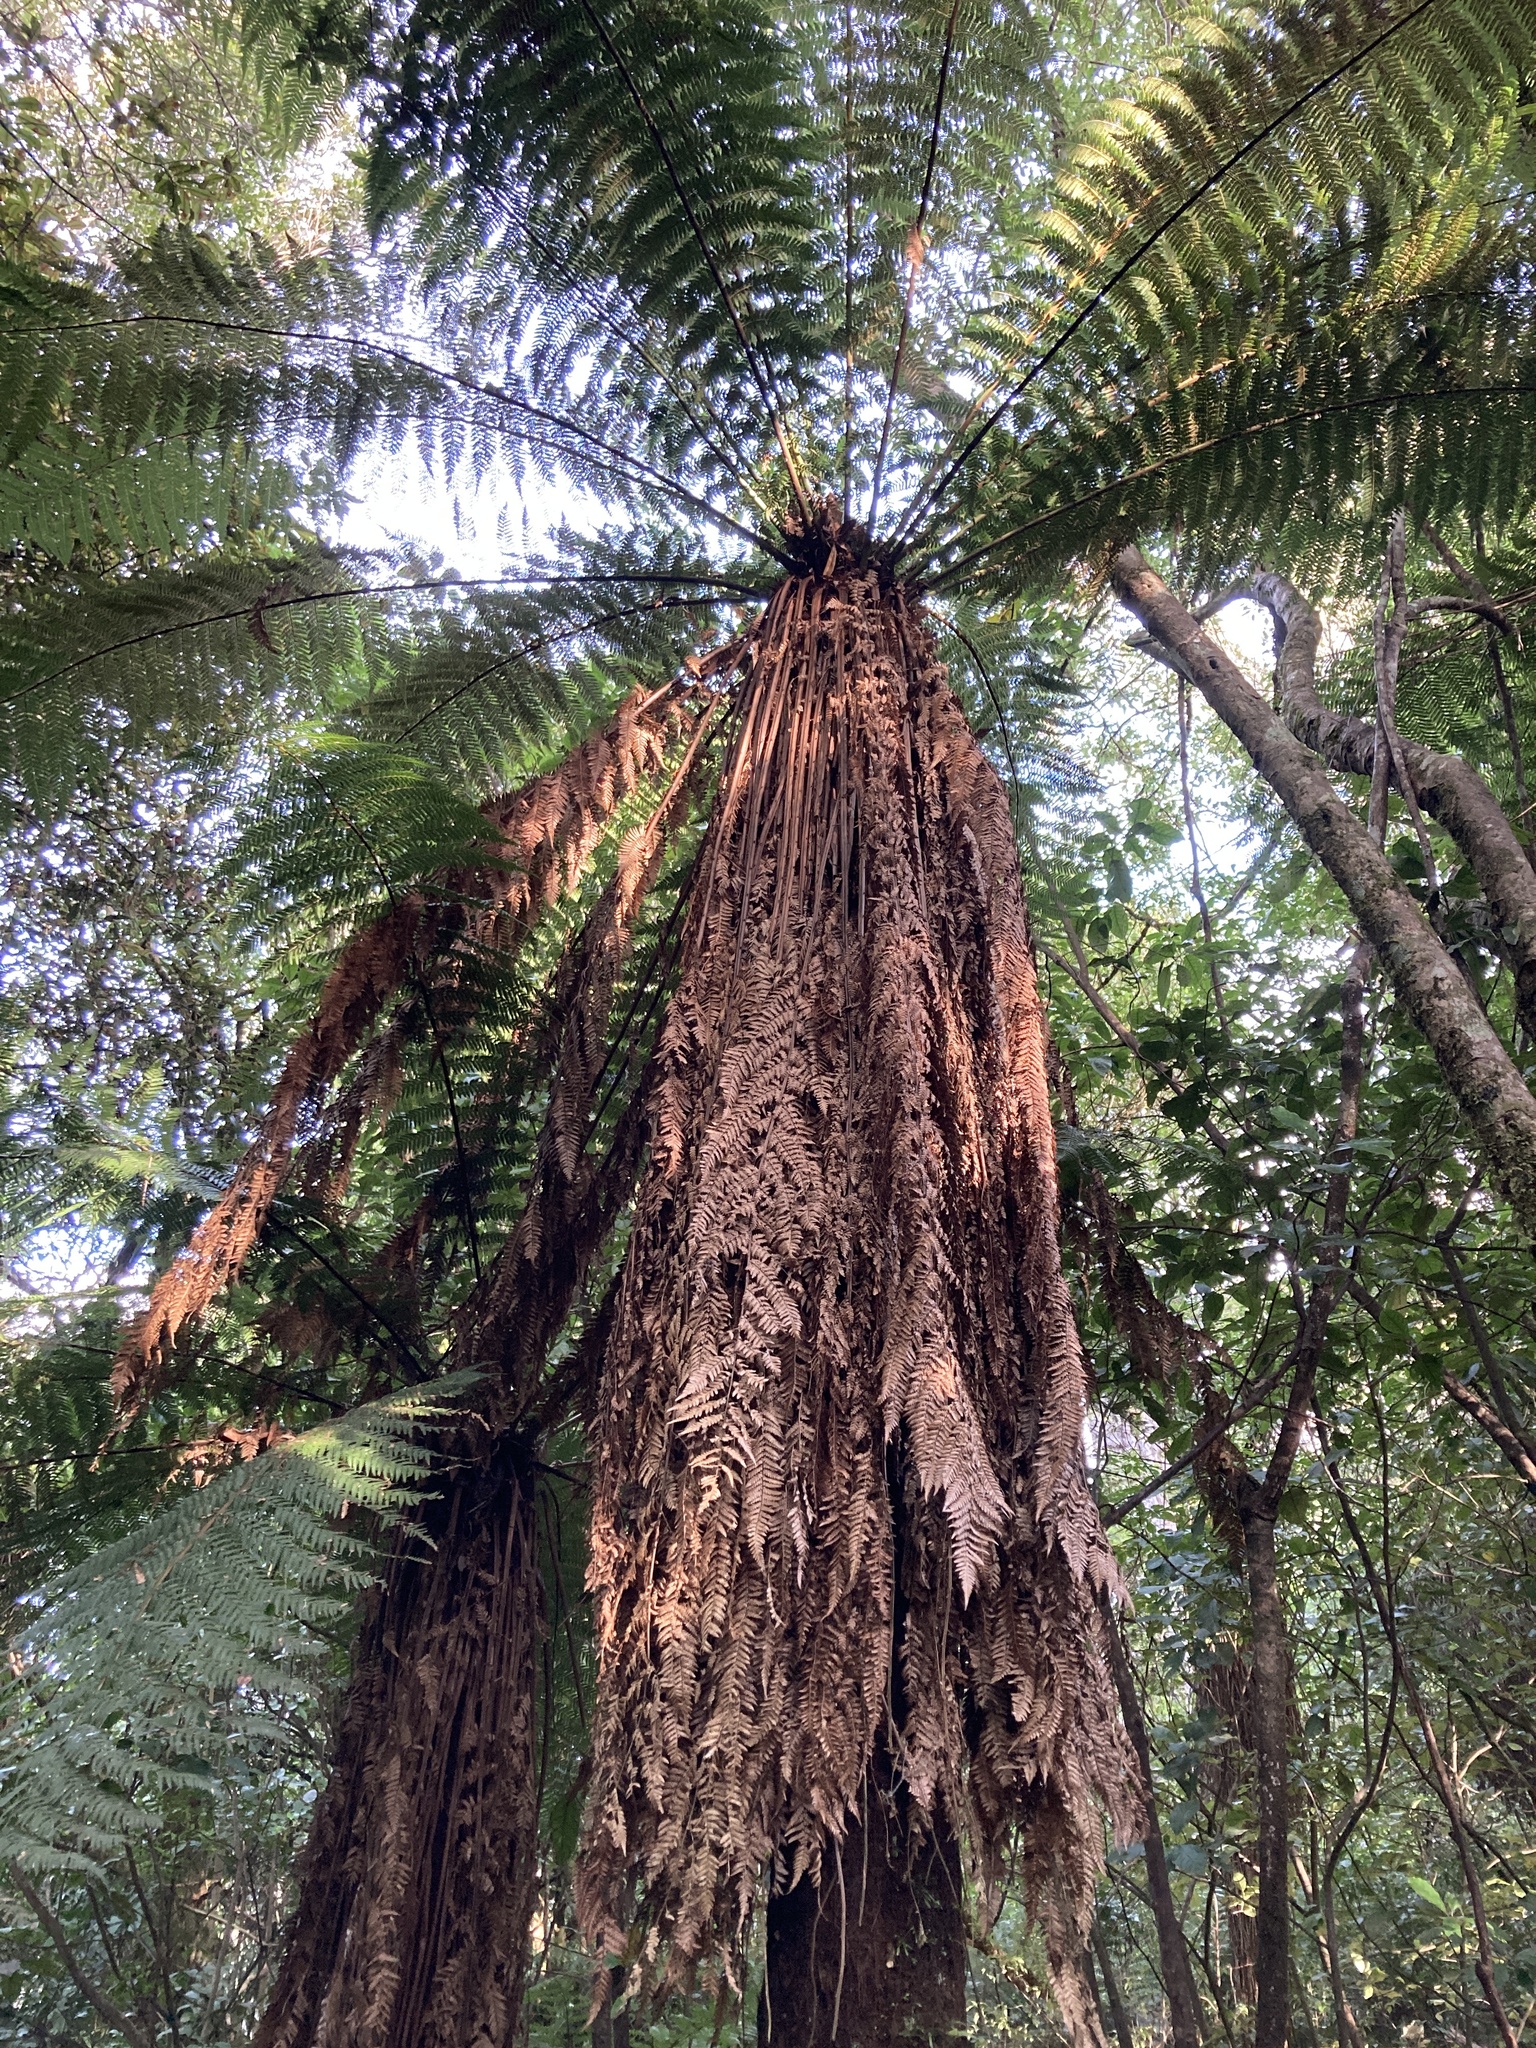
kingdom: Plantae
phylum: Tracheophyta
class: Polypodiopsida
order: Cyatheales
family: Dicksoniaceae
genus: Dicksonia
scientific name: Dicksonia fibrosa
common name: Golden tree fern
